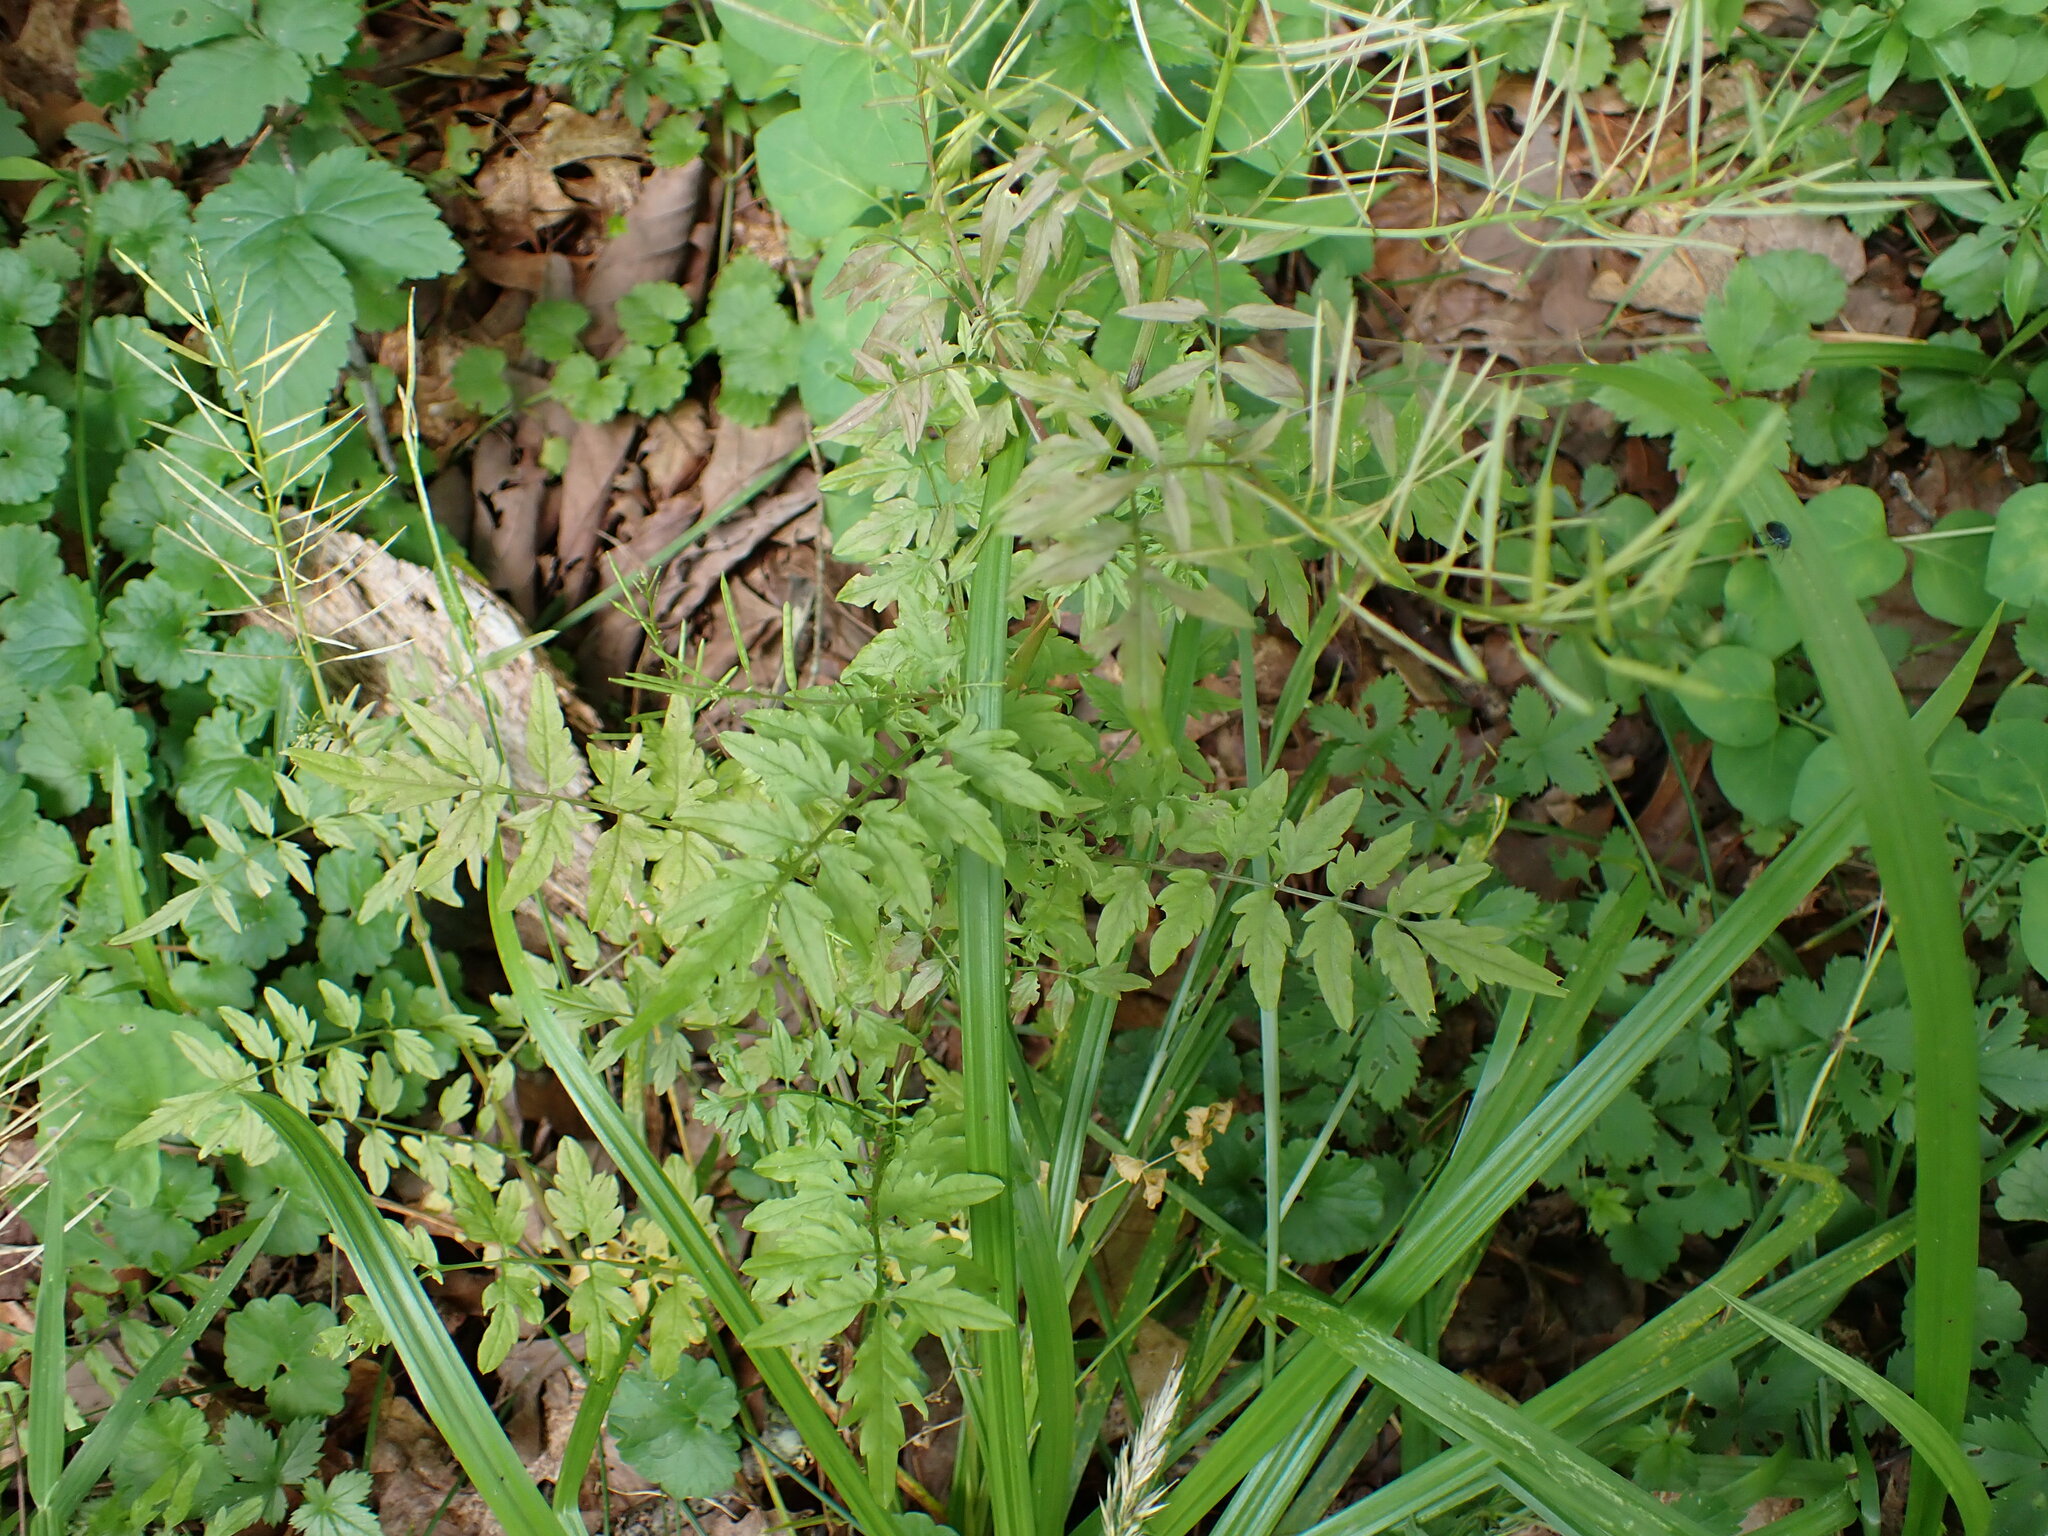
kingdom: Plantae
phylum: Tracheophyta
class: Magnoliopsida
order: Brassicales
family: Brassicaceae
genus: Cardamine
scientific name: Cardamine impatiens
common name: Narrow-leaved bitter-cress
